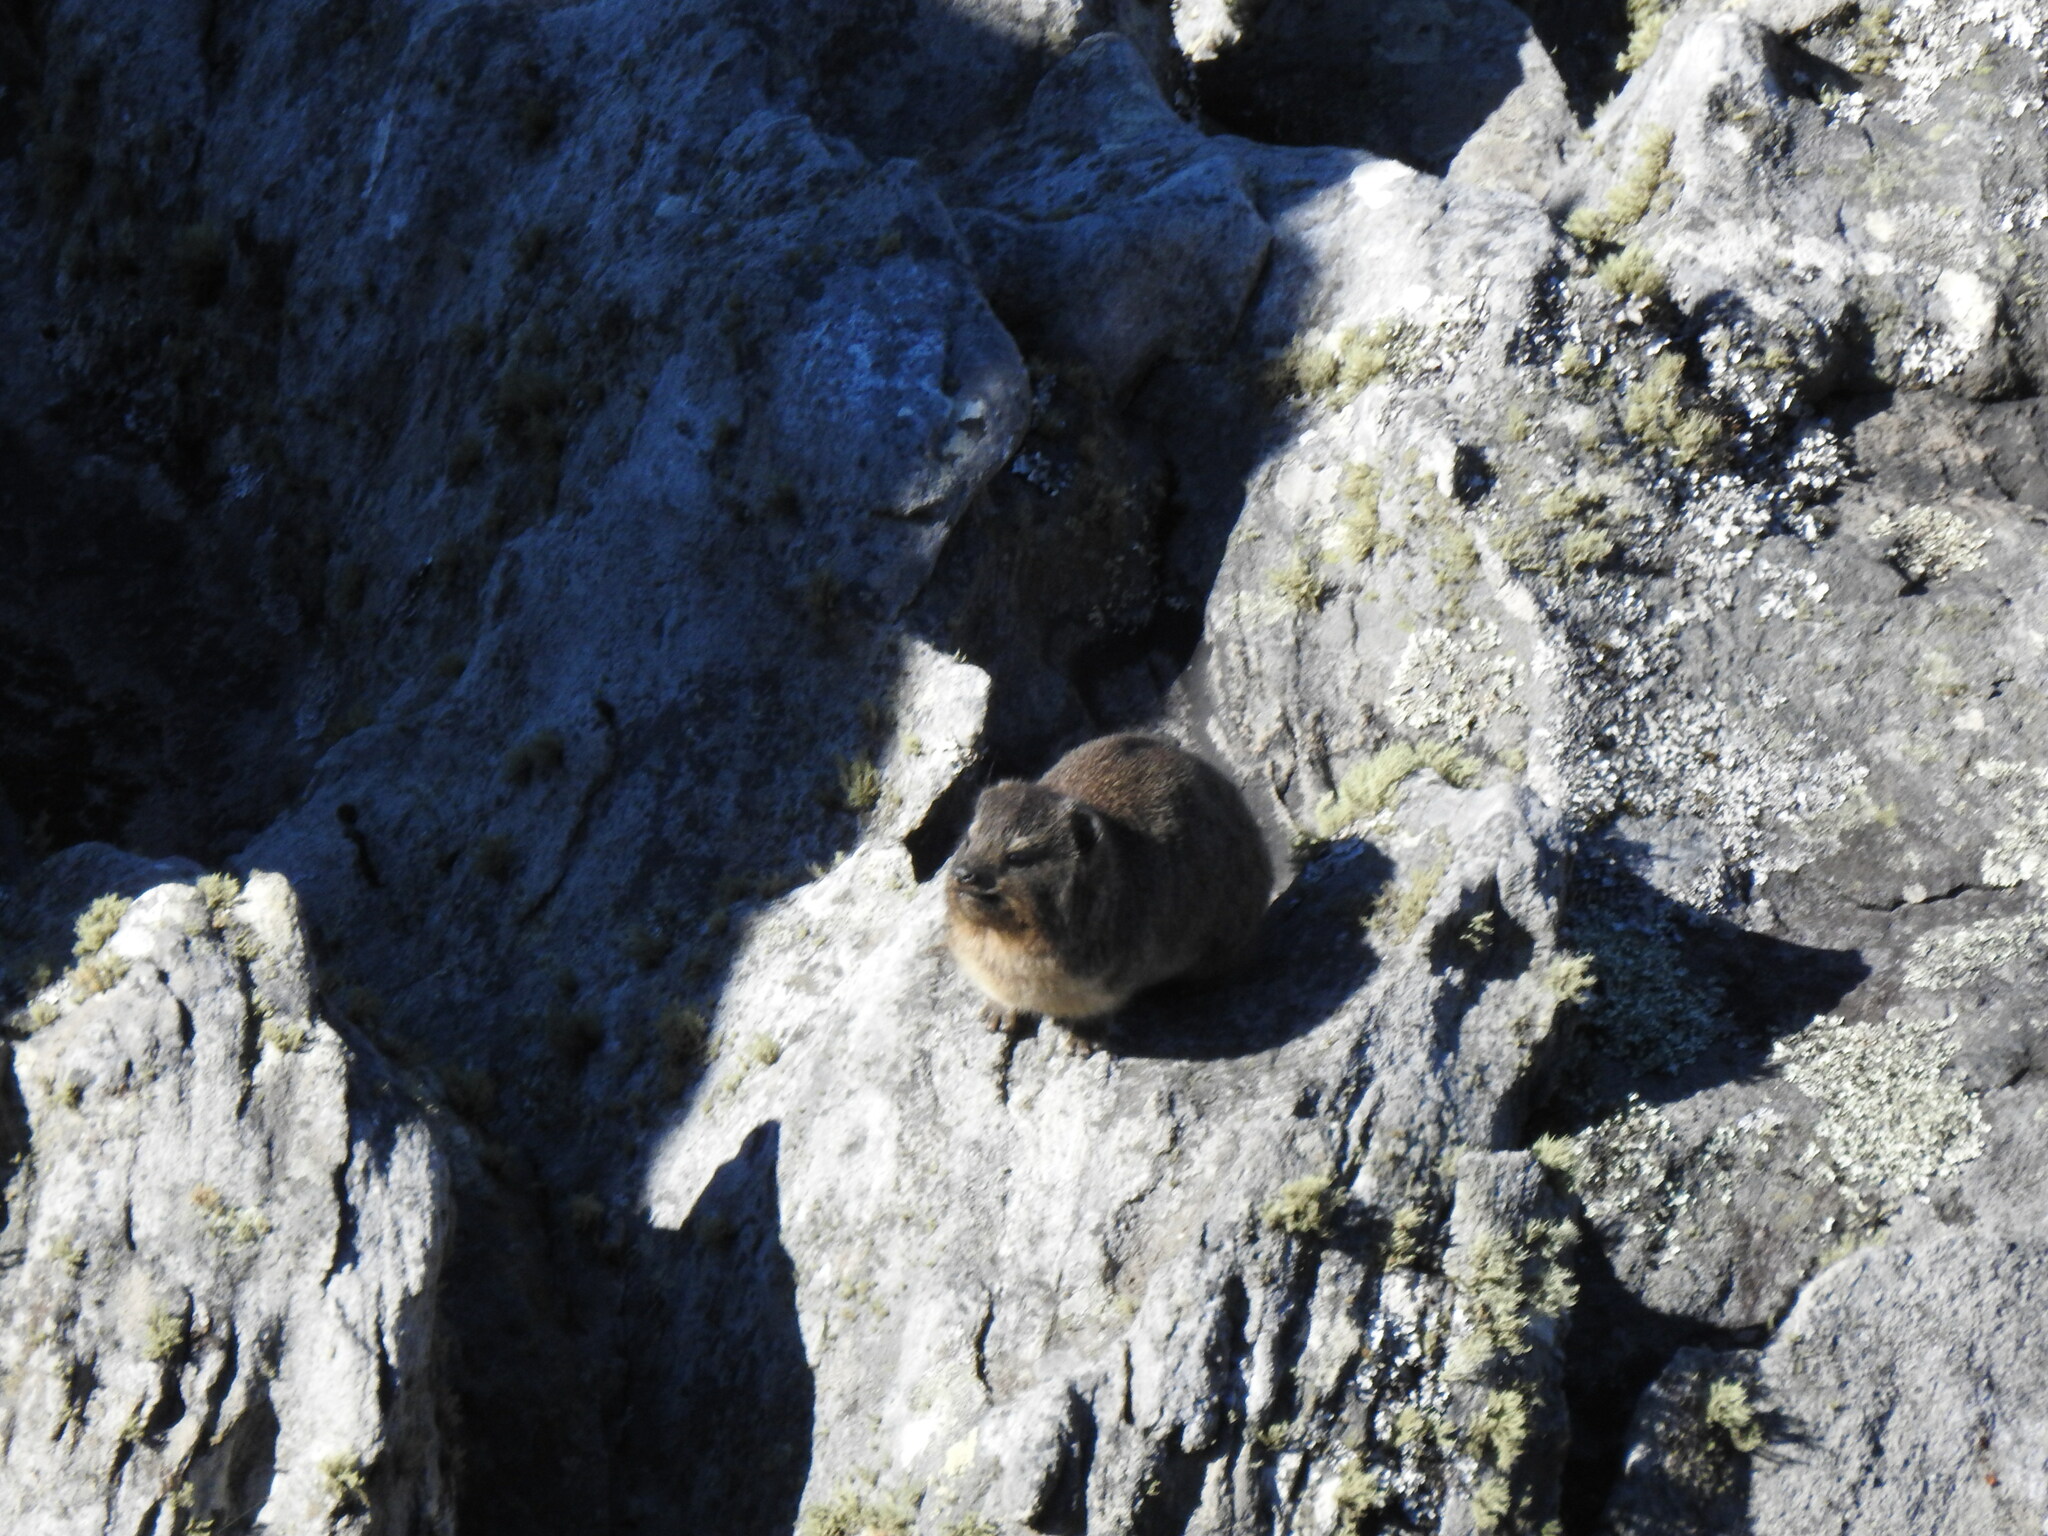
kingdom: Animalia
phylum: Chordata
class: Mammalia
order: Hyracoidea
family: Procaviidae
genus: Procavia
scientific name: Procavia capensis
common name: Rock hyrax
